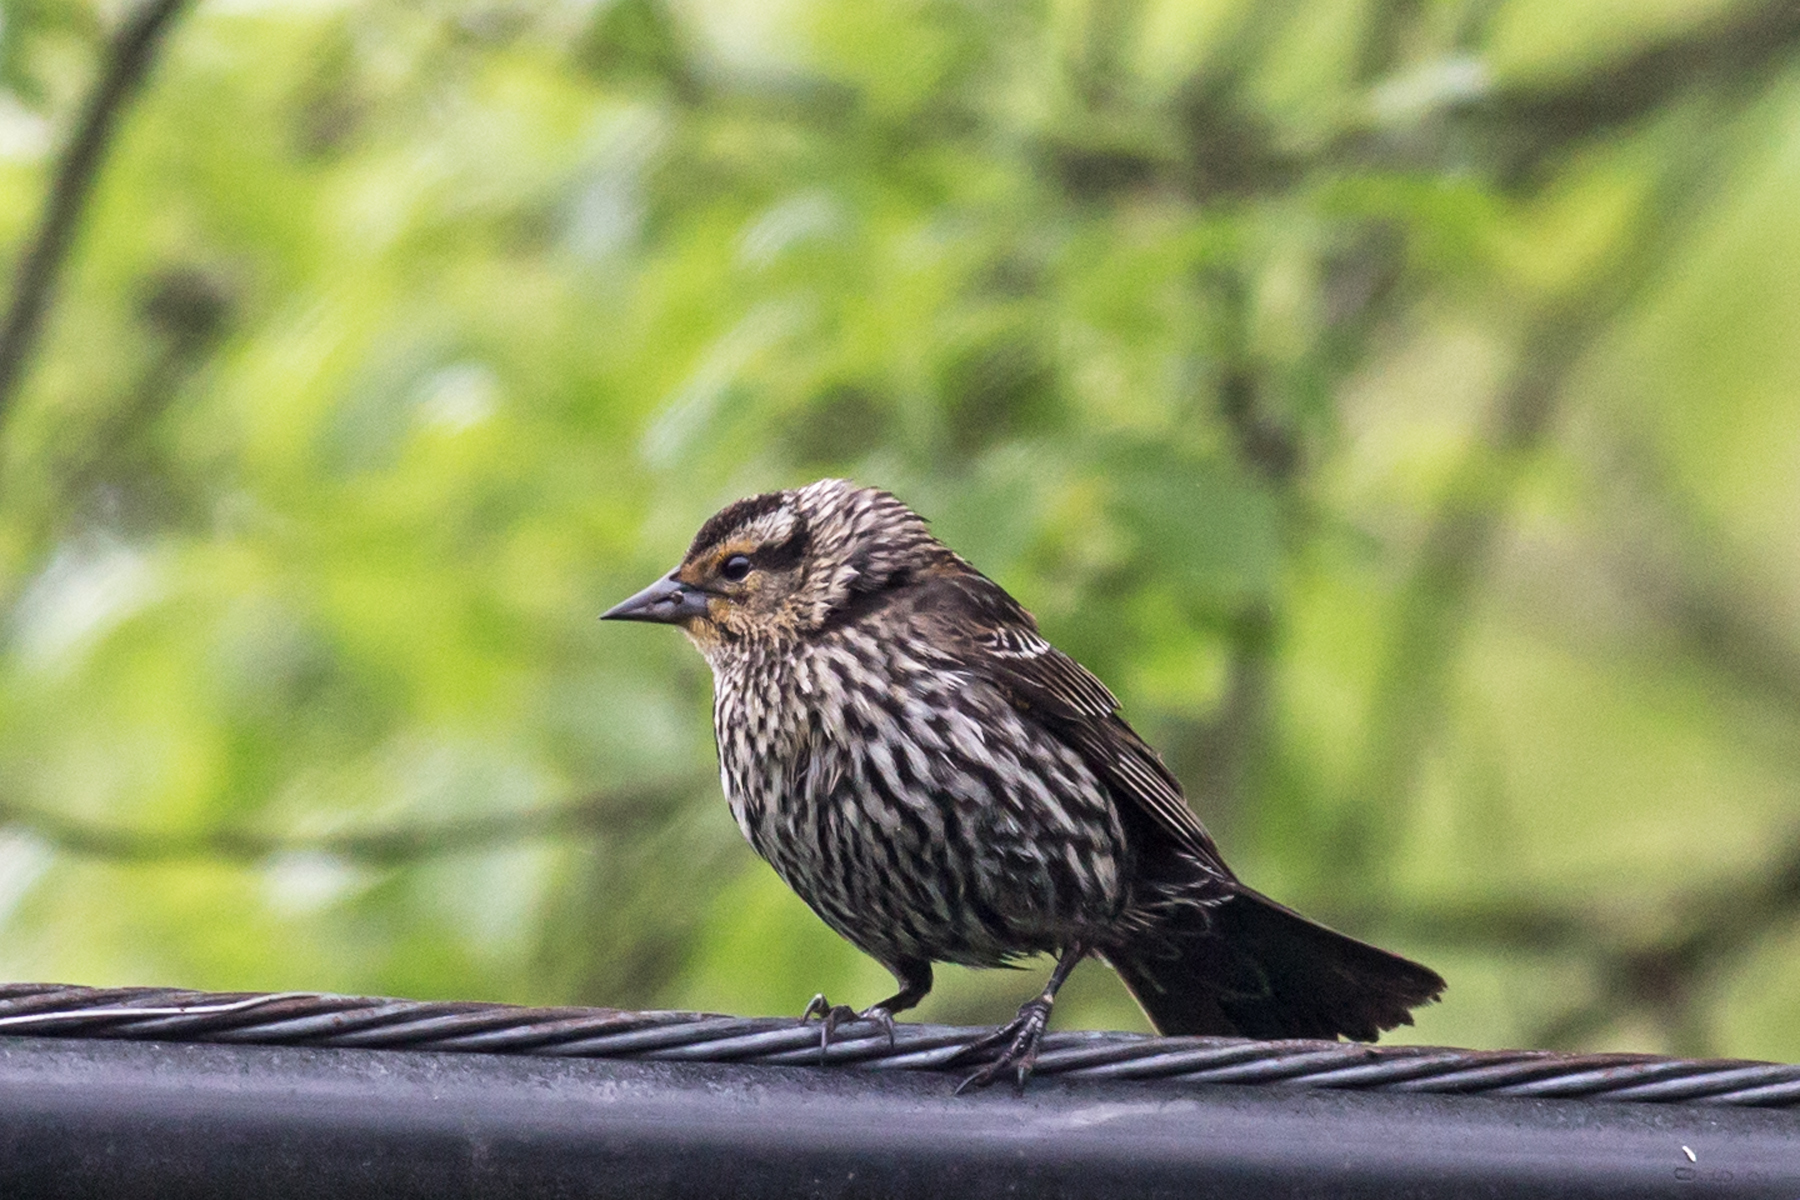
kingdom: Animalia
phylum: Chordata
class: Aves
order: Passeriformes
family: Icteridae
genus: Agelaius
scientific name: Agelaius phoeniceus
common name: Red-winged blackbird
